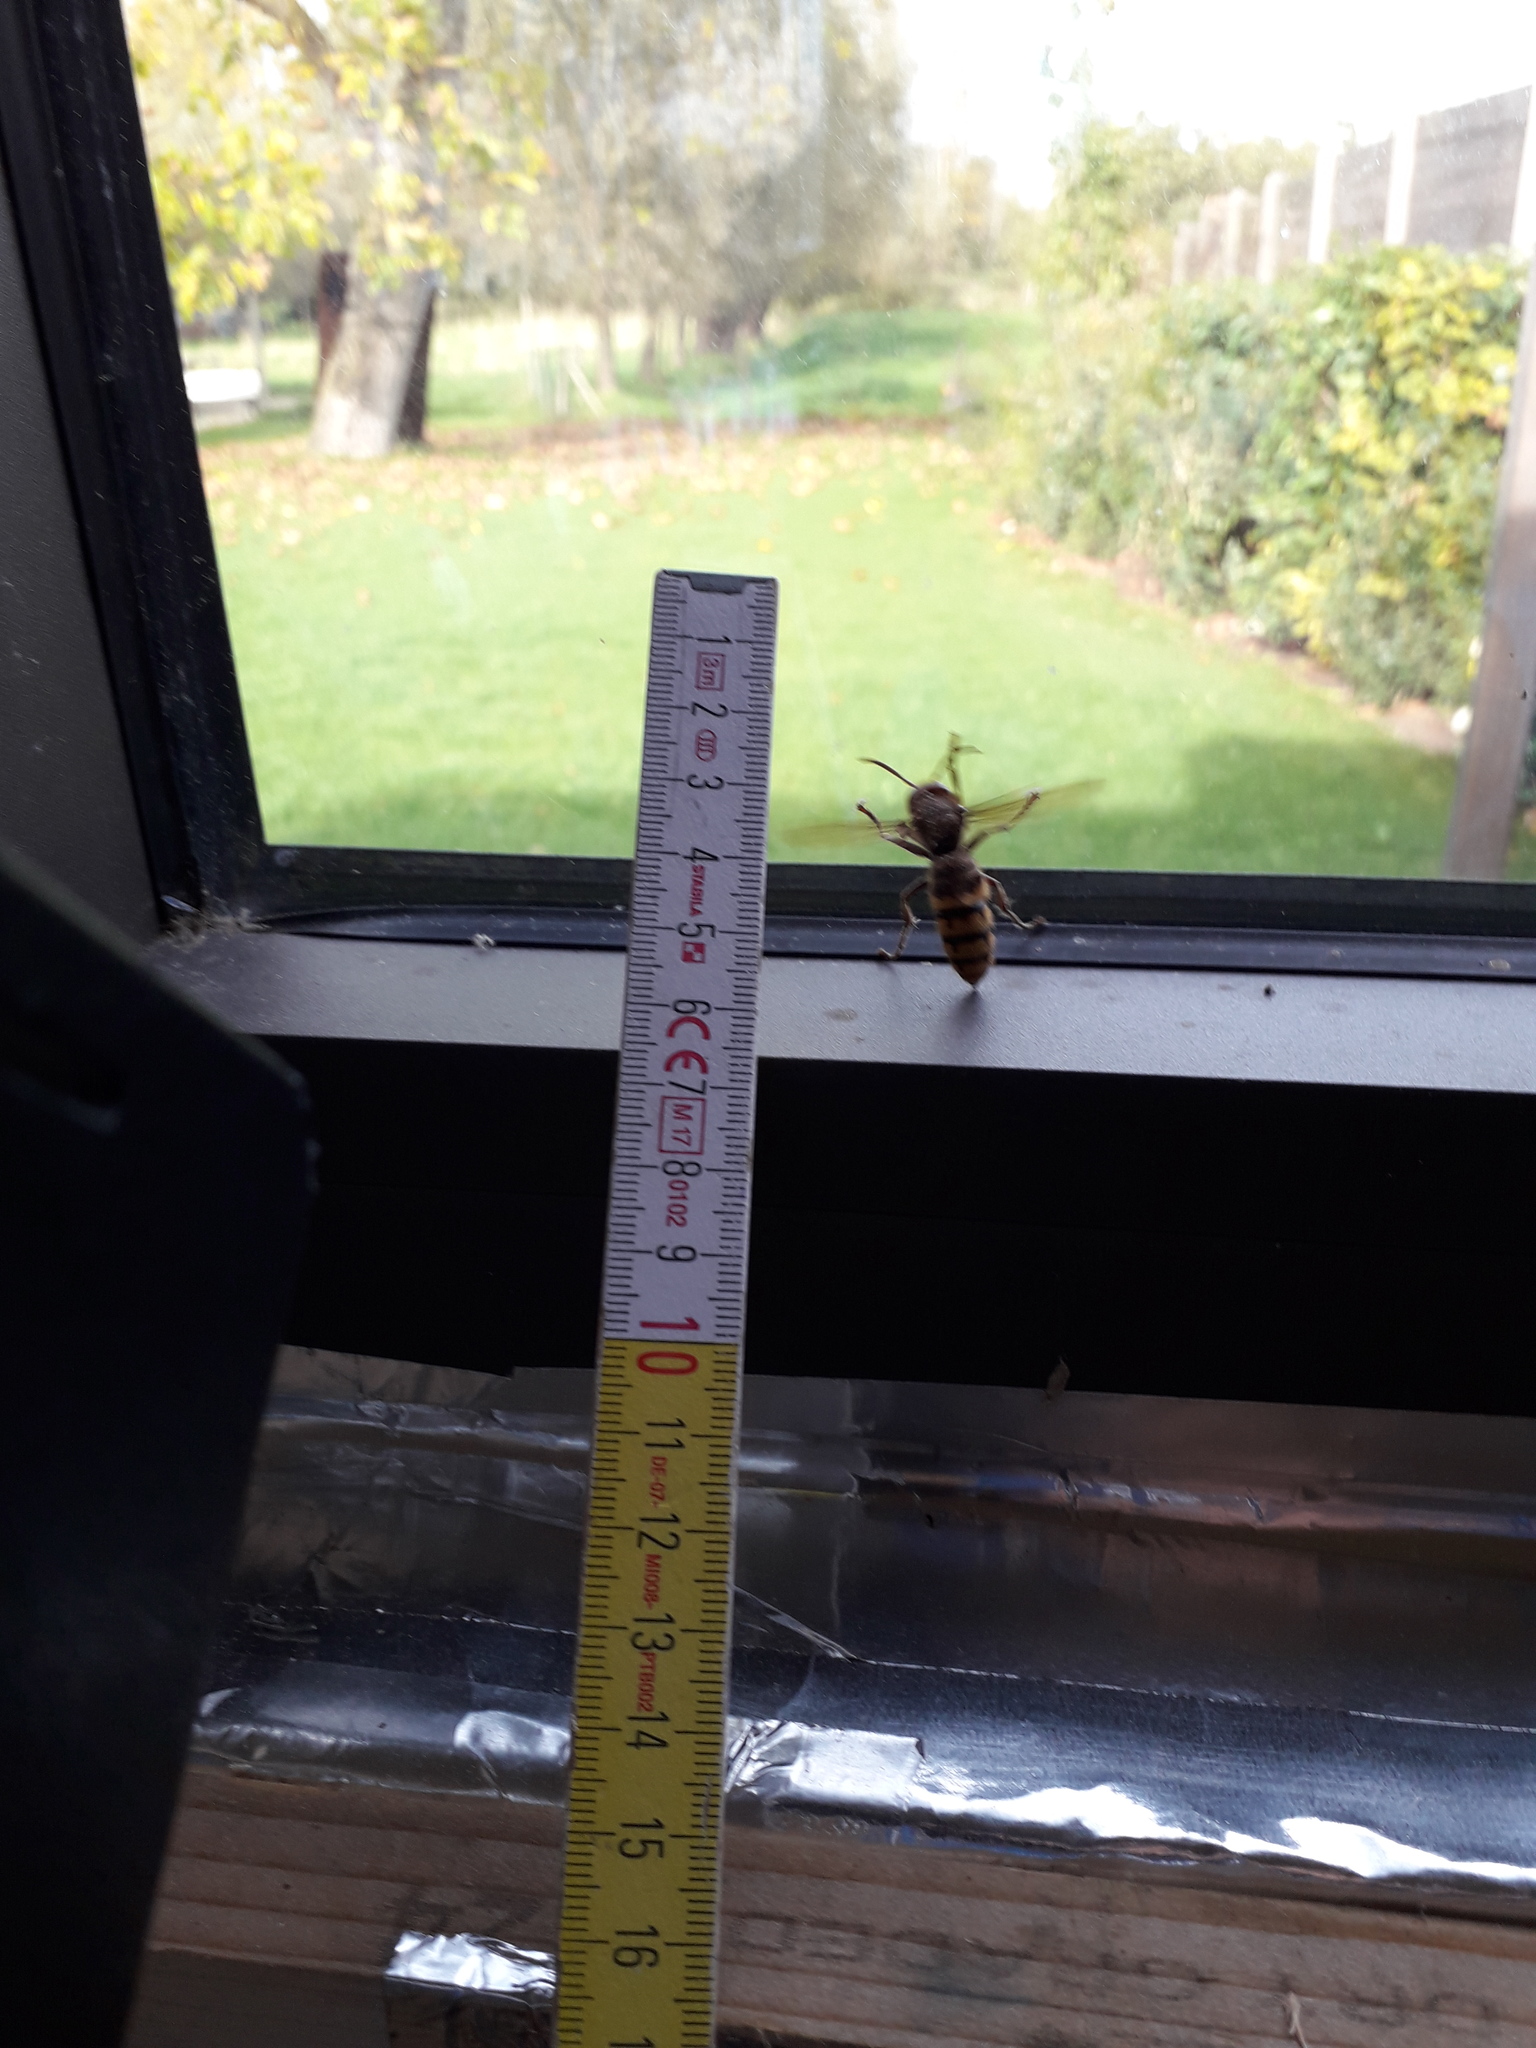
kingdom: Animalia
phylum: Arthropoda
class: Insecta
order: Hymenoptera
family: Vespidae
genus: Vespa
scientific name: Vespa crabro
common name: Hornet
